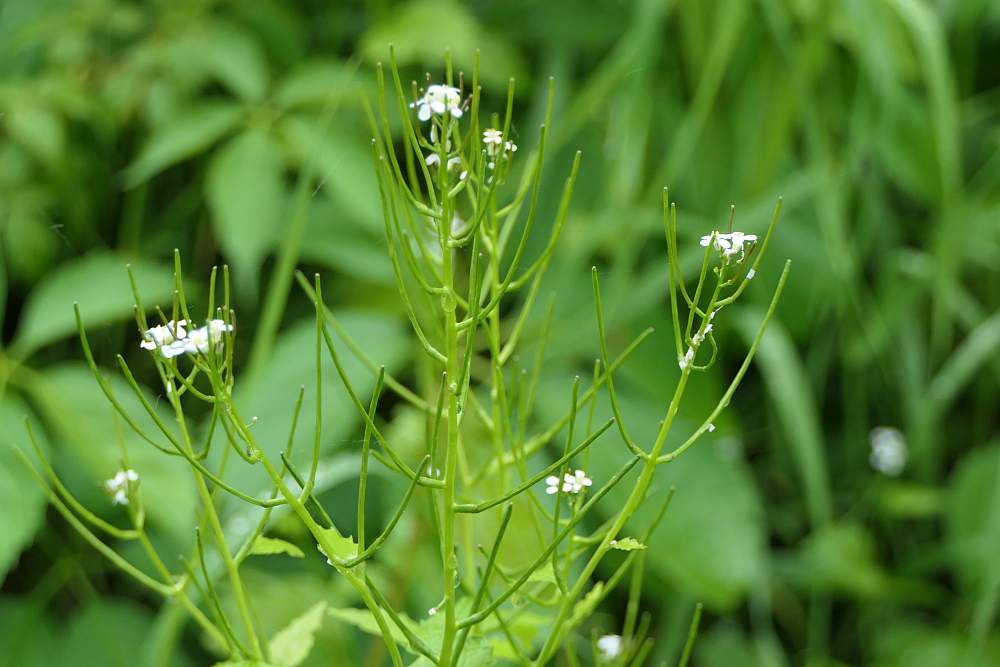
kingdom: Plantae
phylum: Tracheophyta
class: Magnoliopsida
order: Brassicales
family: Brassicaceae
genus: Alliaria
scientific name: Alliaria petiolata
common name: Garlic mustard
